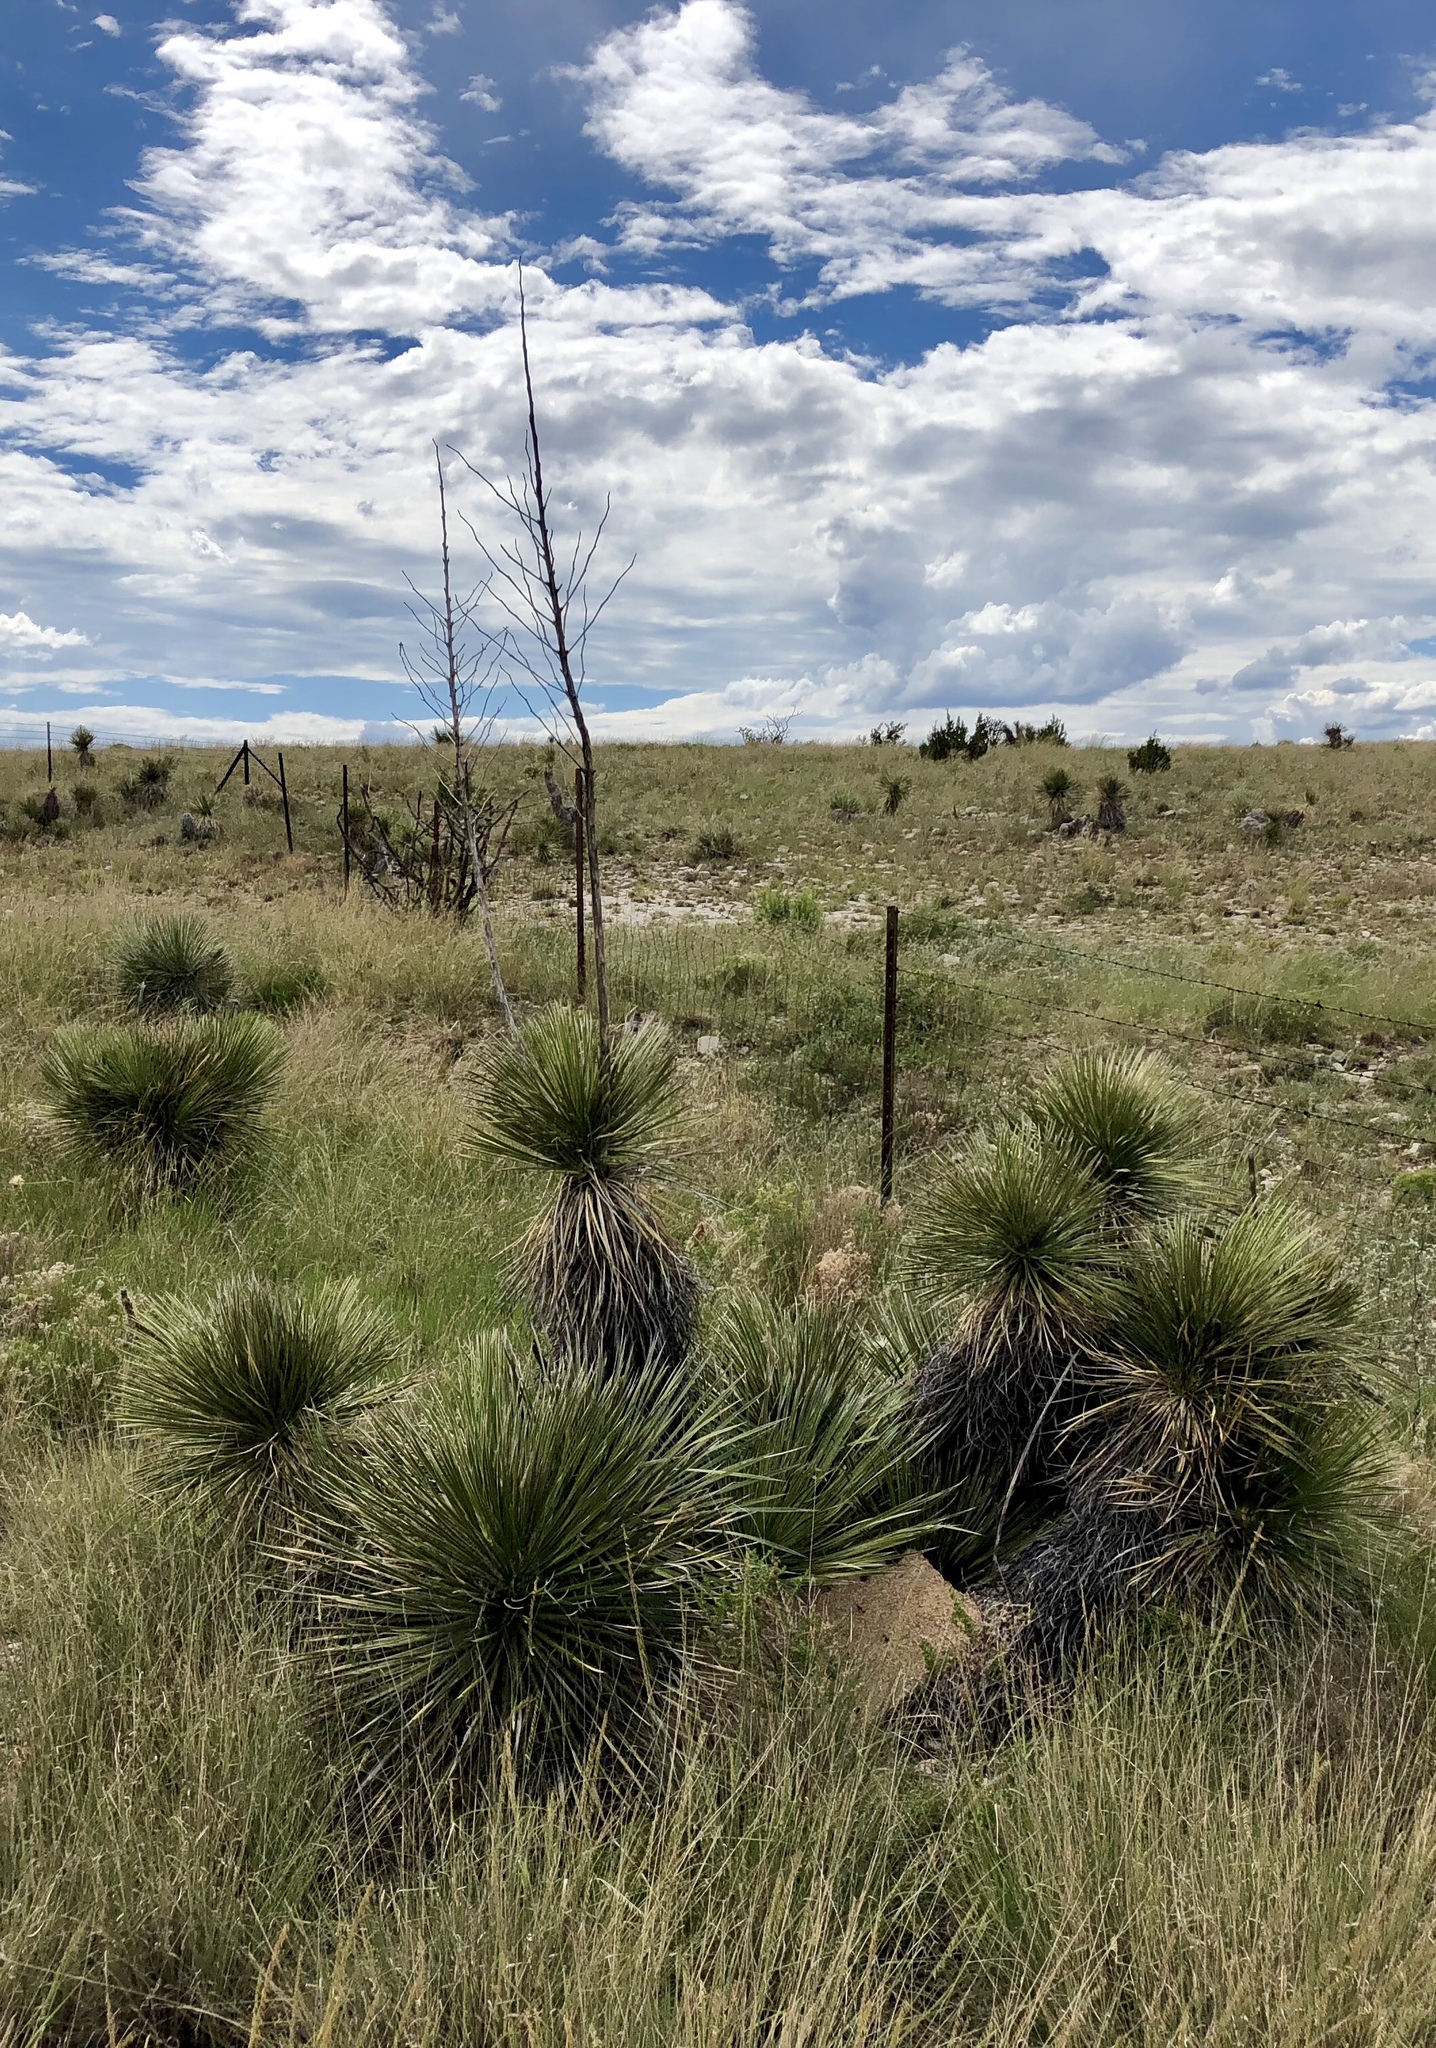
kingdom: Plantae
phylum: Tracheophyta
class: Liliopsida
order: Asparagales
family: Asparagaceae
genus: Yucca
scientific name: Yucca elata
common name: Palmella
